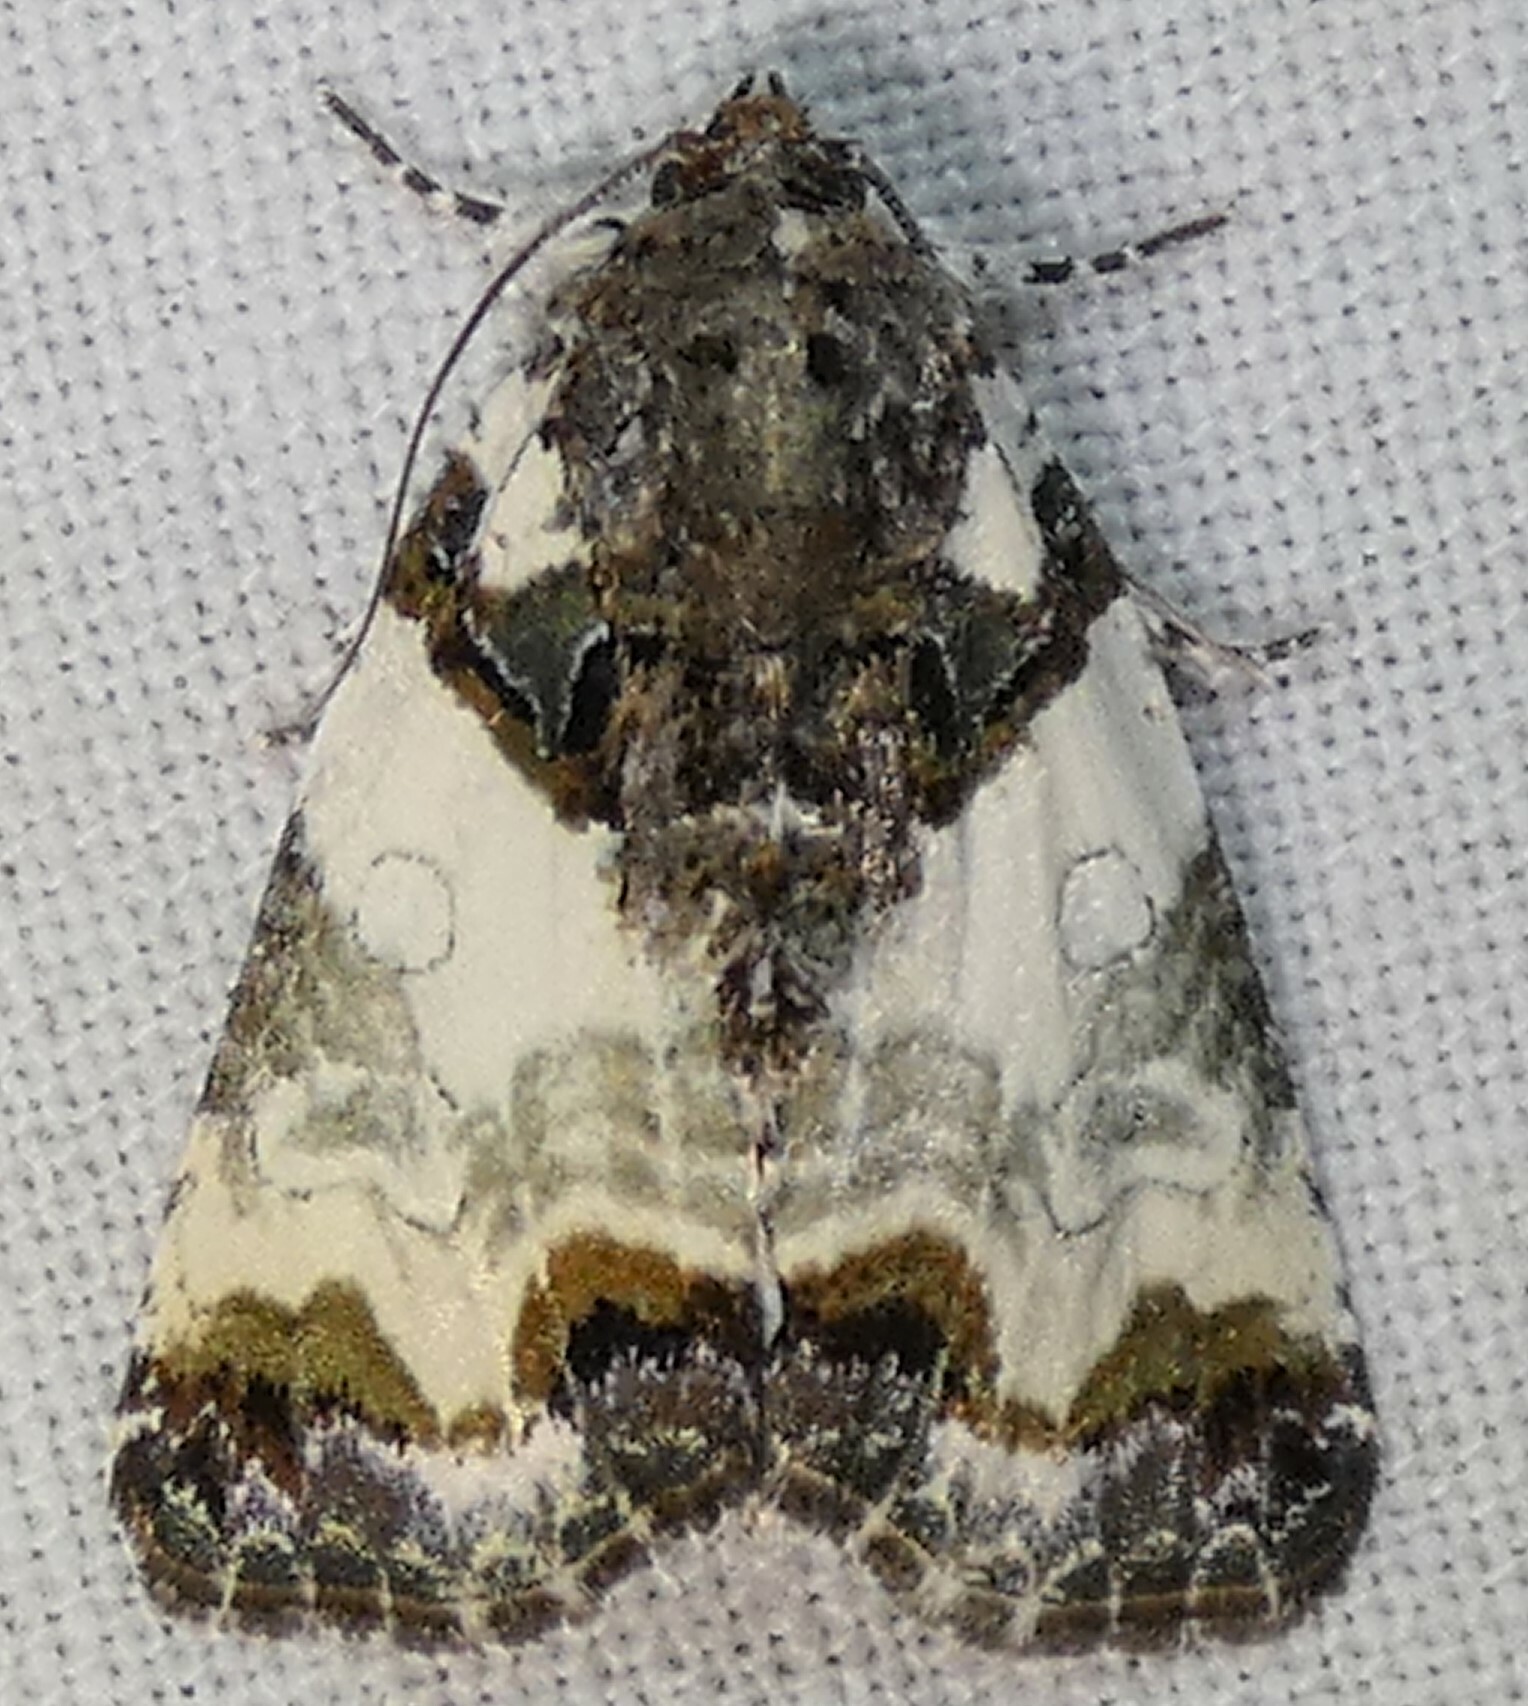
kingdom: Animalia
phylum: Arthropoda
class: Insecta
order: Lepidoptera
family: Noctuidae
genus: Cerma
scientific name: Cerma cerintha
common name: Tufted bird-dropping moth
